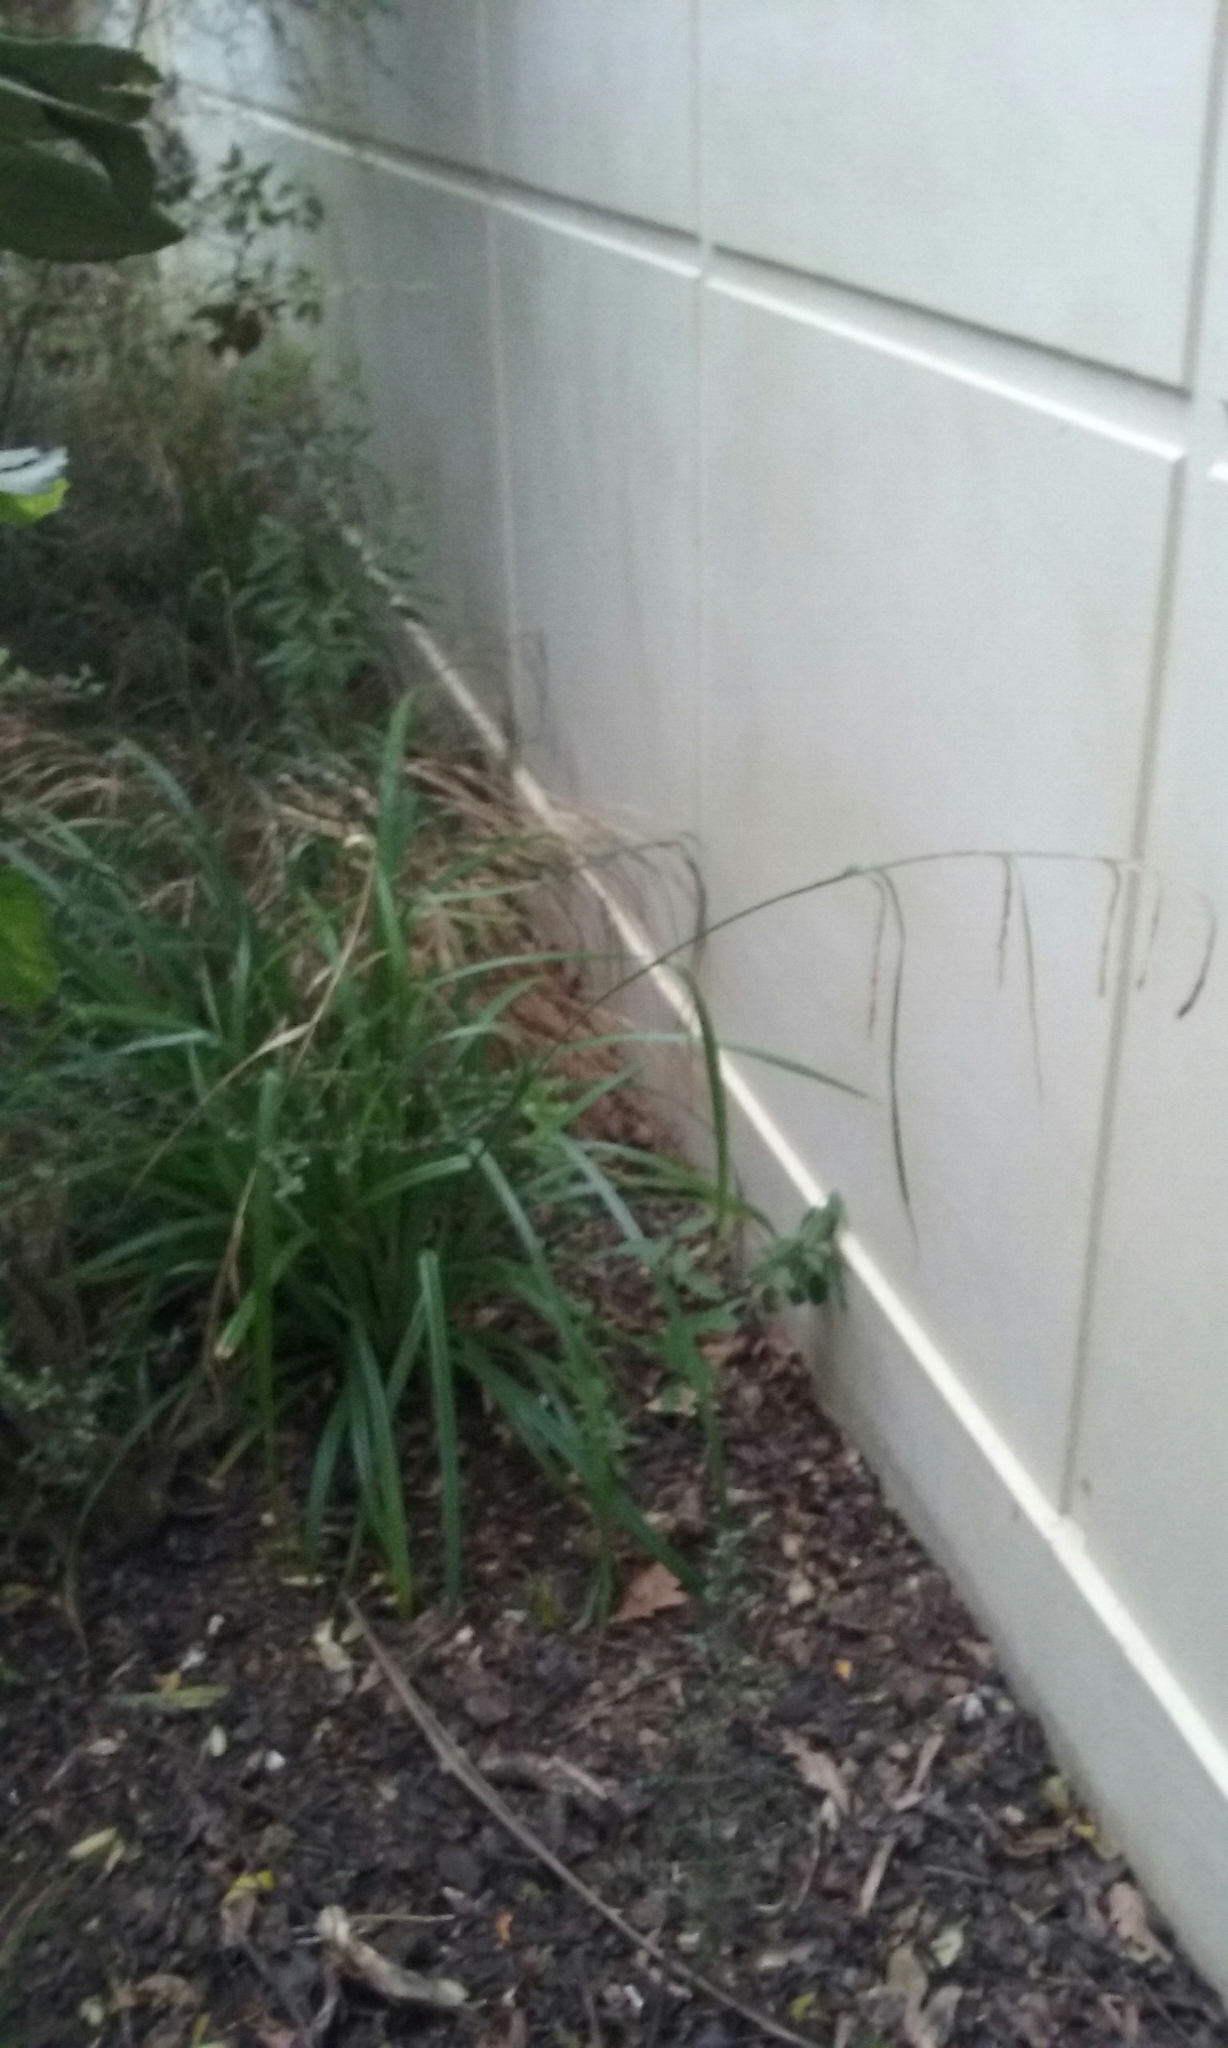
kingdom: Plantae
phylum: Tracheophyta
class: Liliopsida
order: Poales
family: Cyperaceae
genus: Carex
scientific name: Carex pendula
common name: Pendulous sedge
